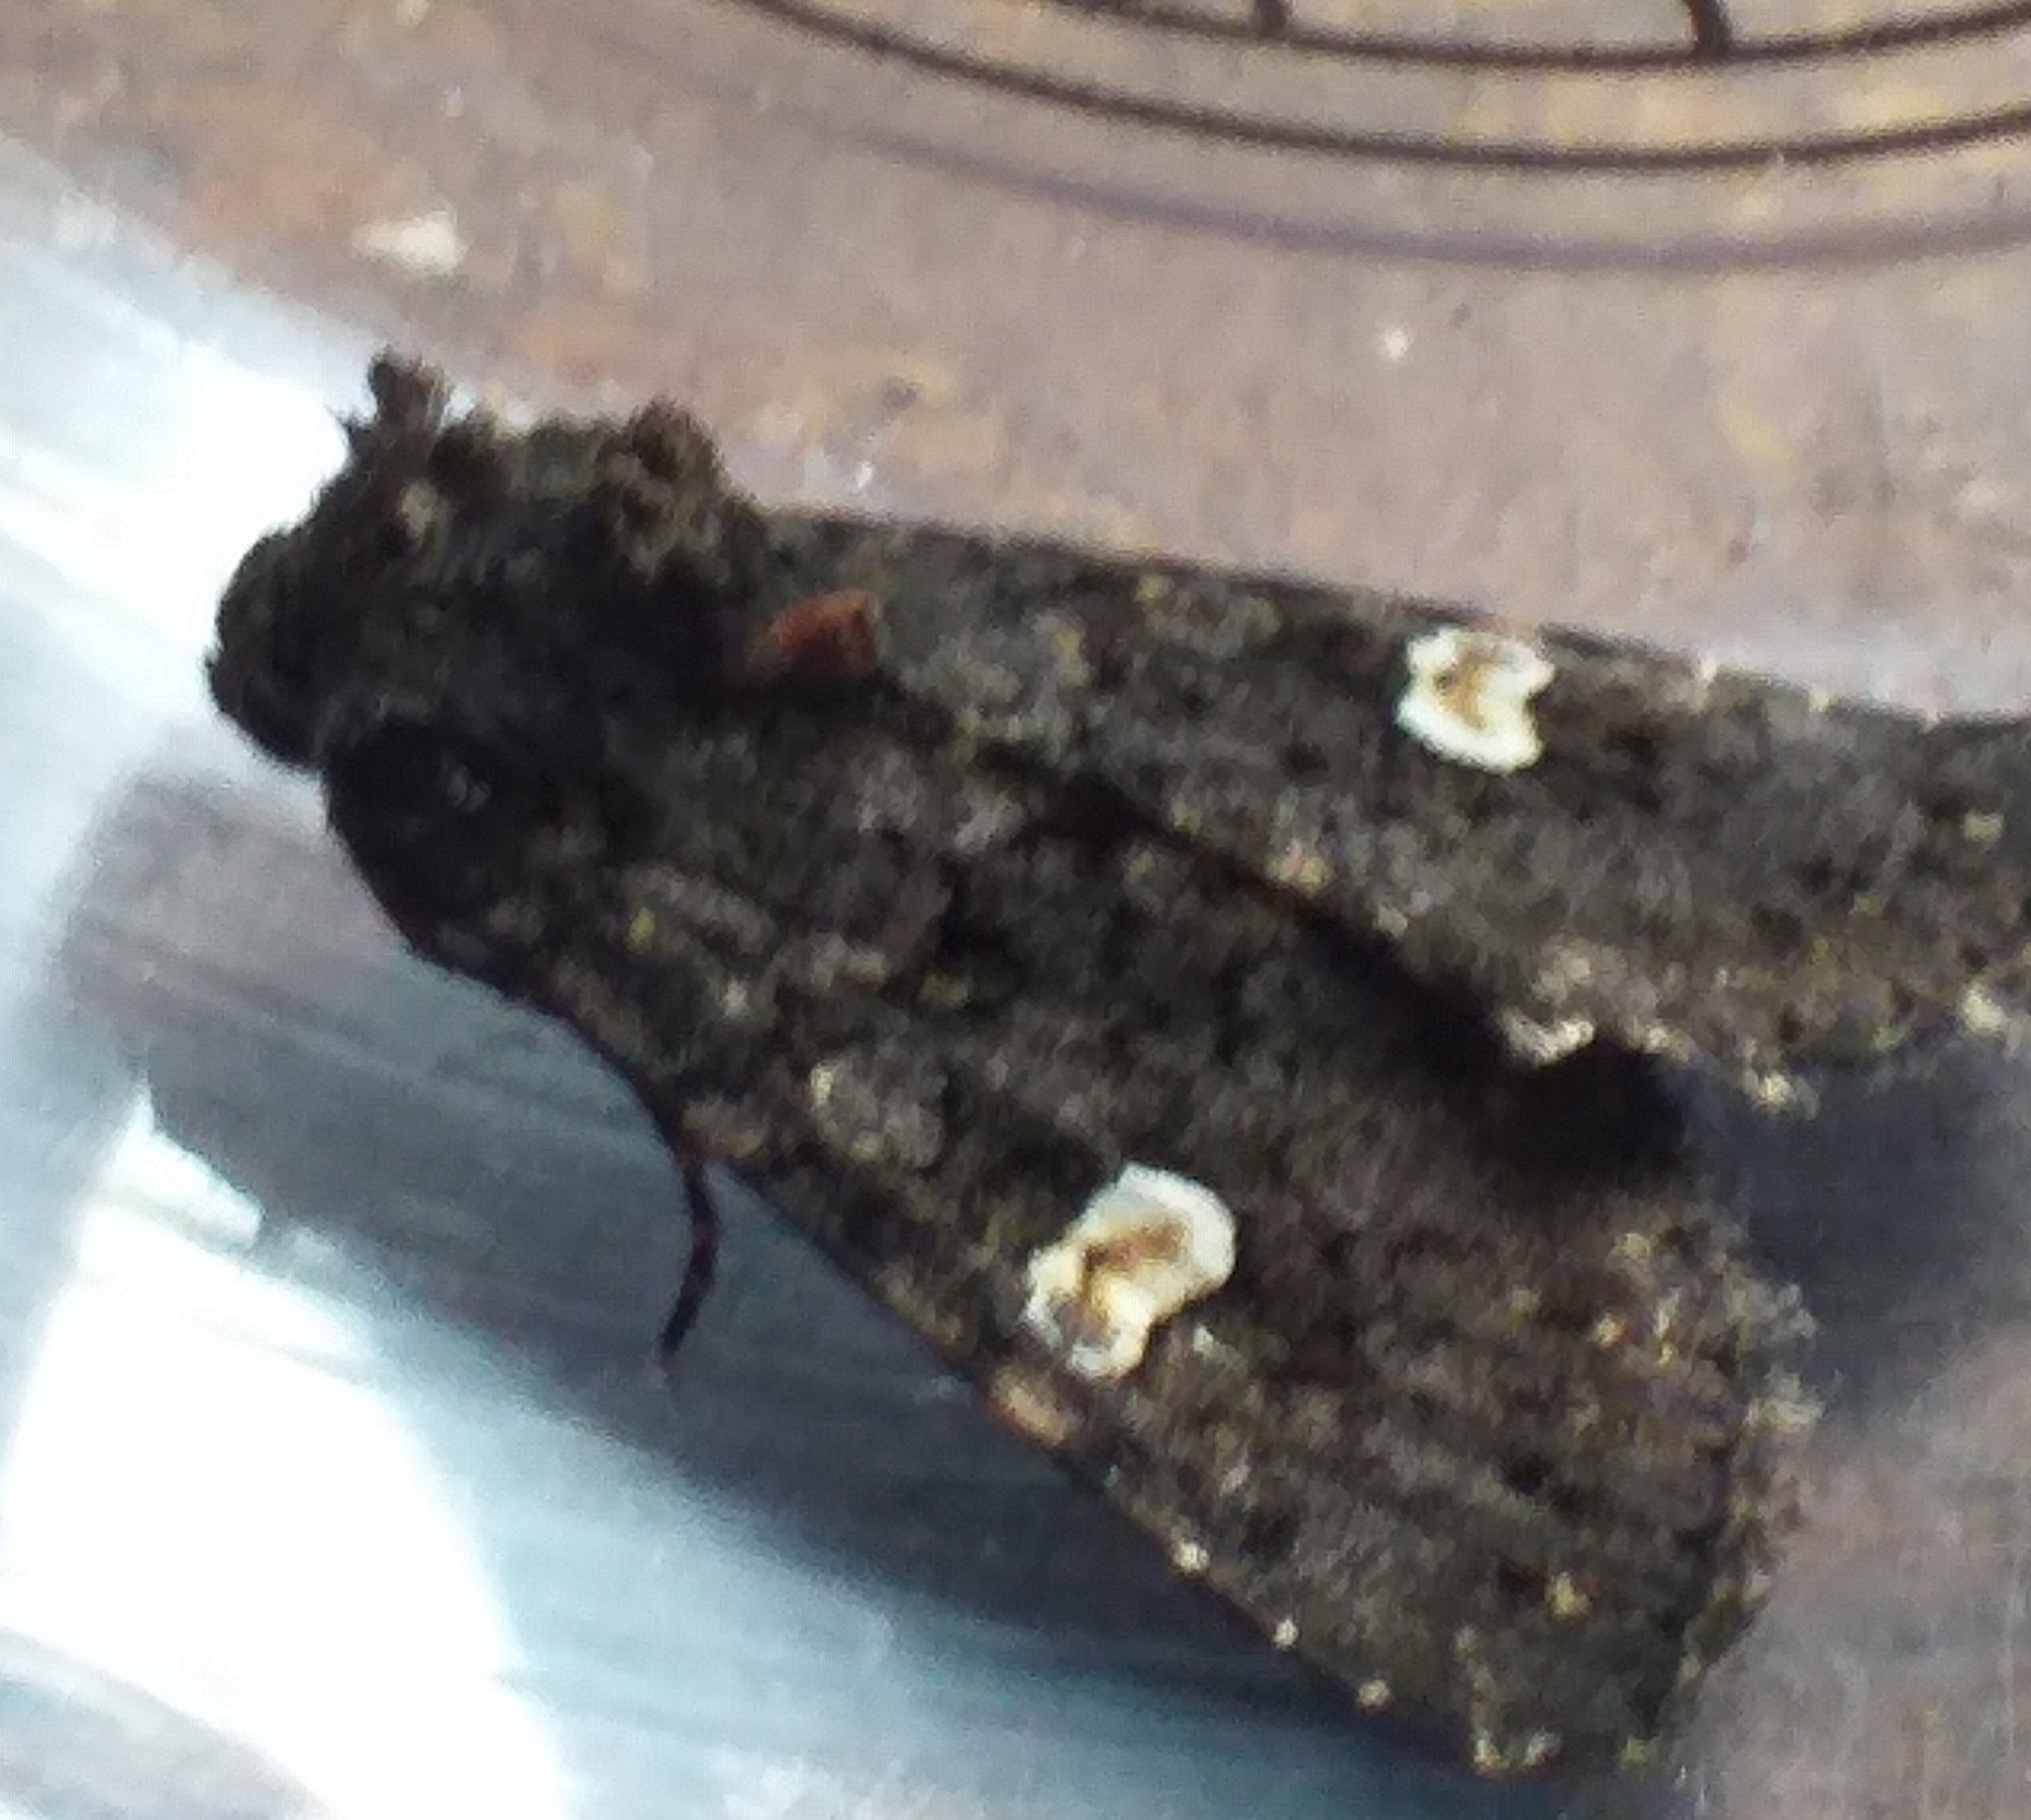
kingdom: Animalia
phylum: Arthropoda
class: Insecta
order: Lepidoptera
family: Noctuidae
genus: Melanchra
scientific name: Melanchra persicariae
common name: Dot moth
